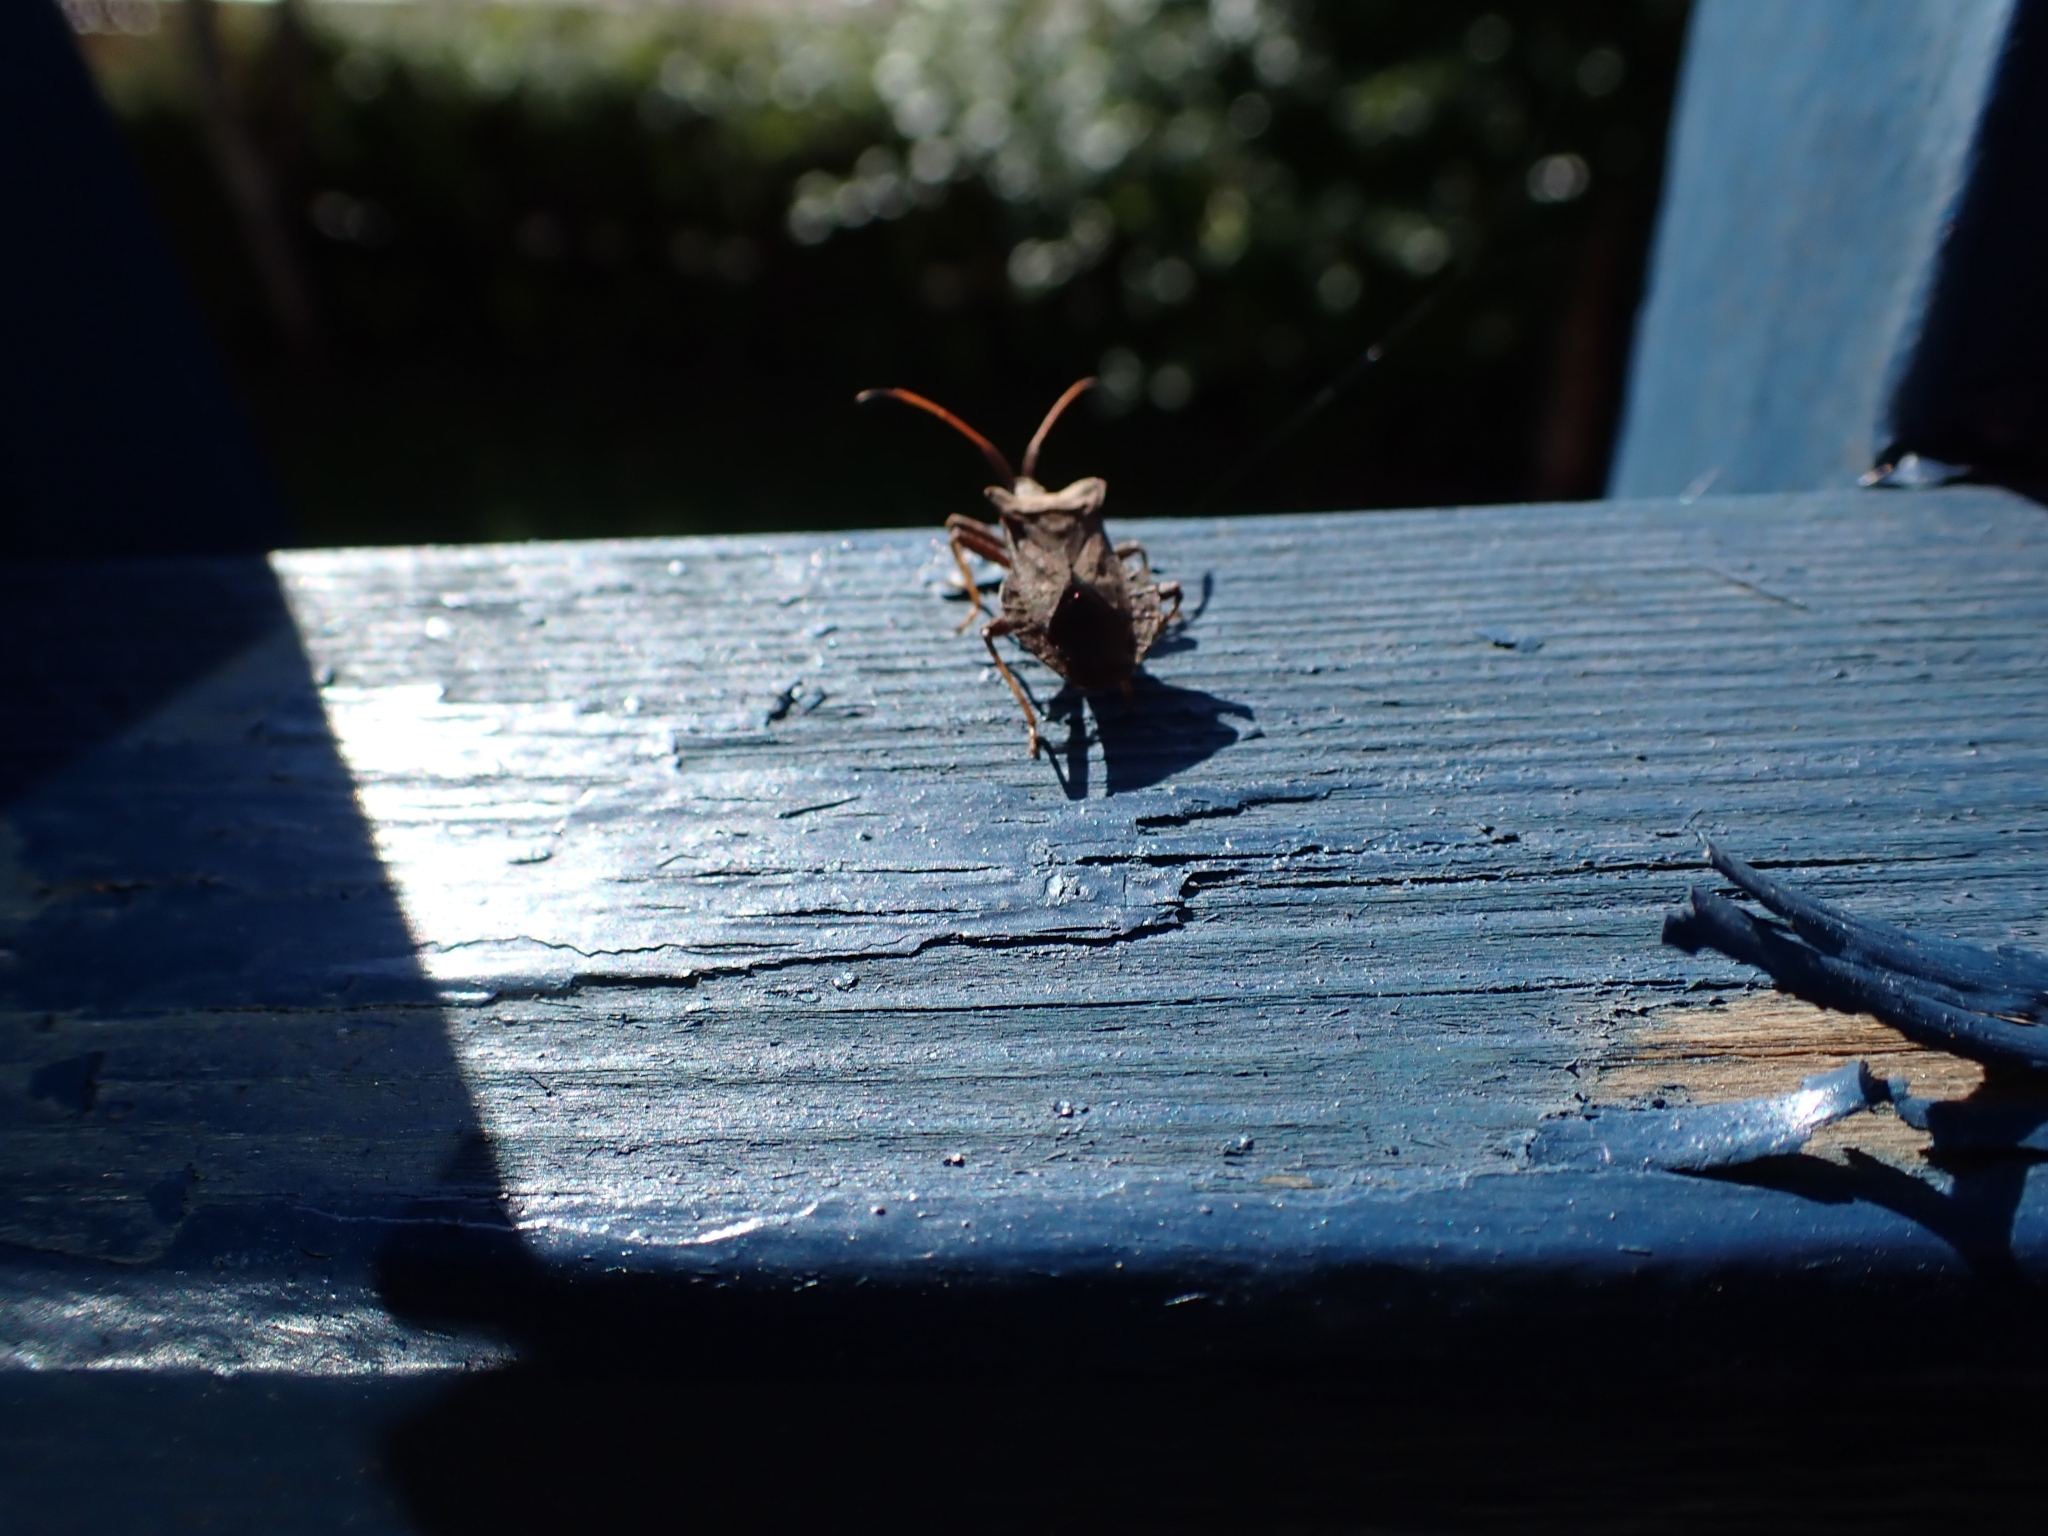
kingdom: Animalia
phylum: Arthropoda
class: Insecta
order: Hemiptera
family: Coreidae
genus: Coreus
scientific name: Coreus marginatus
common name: Dock bug
